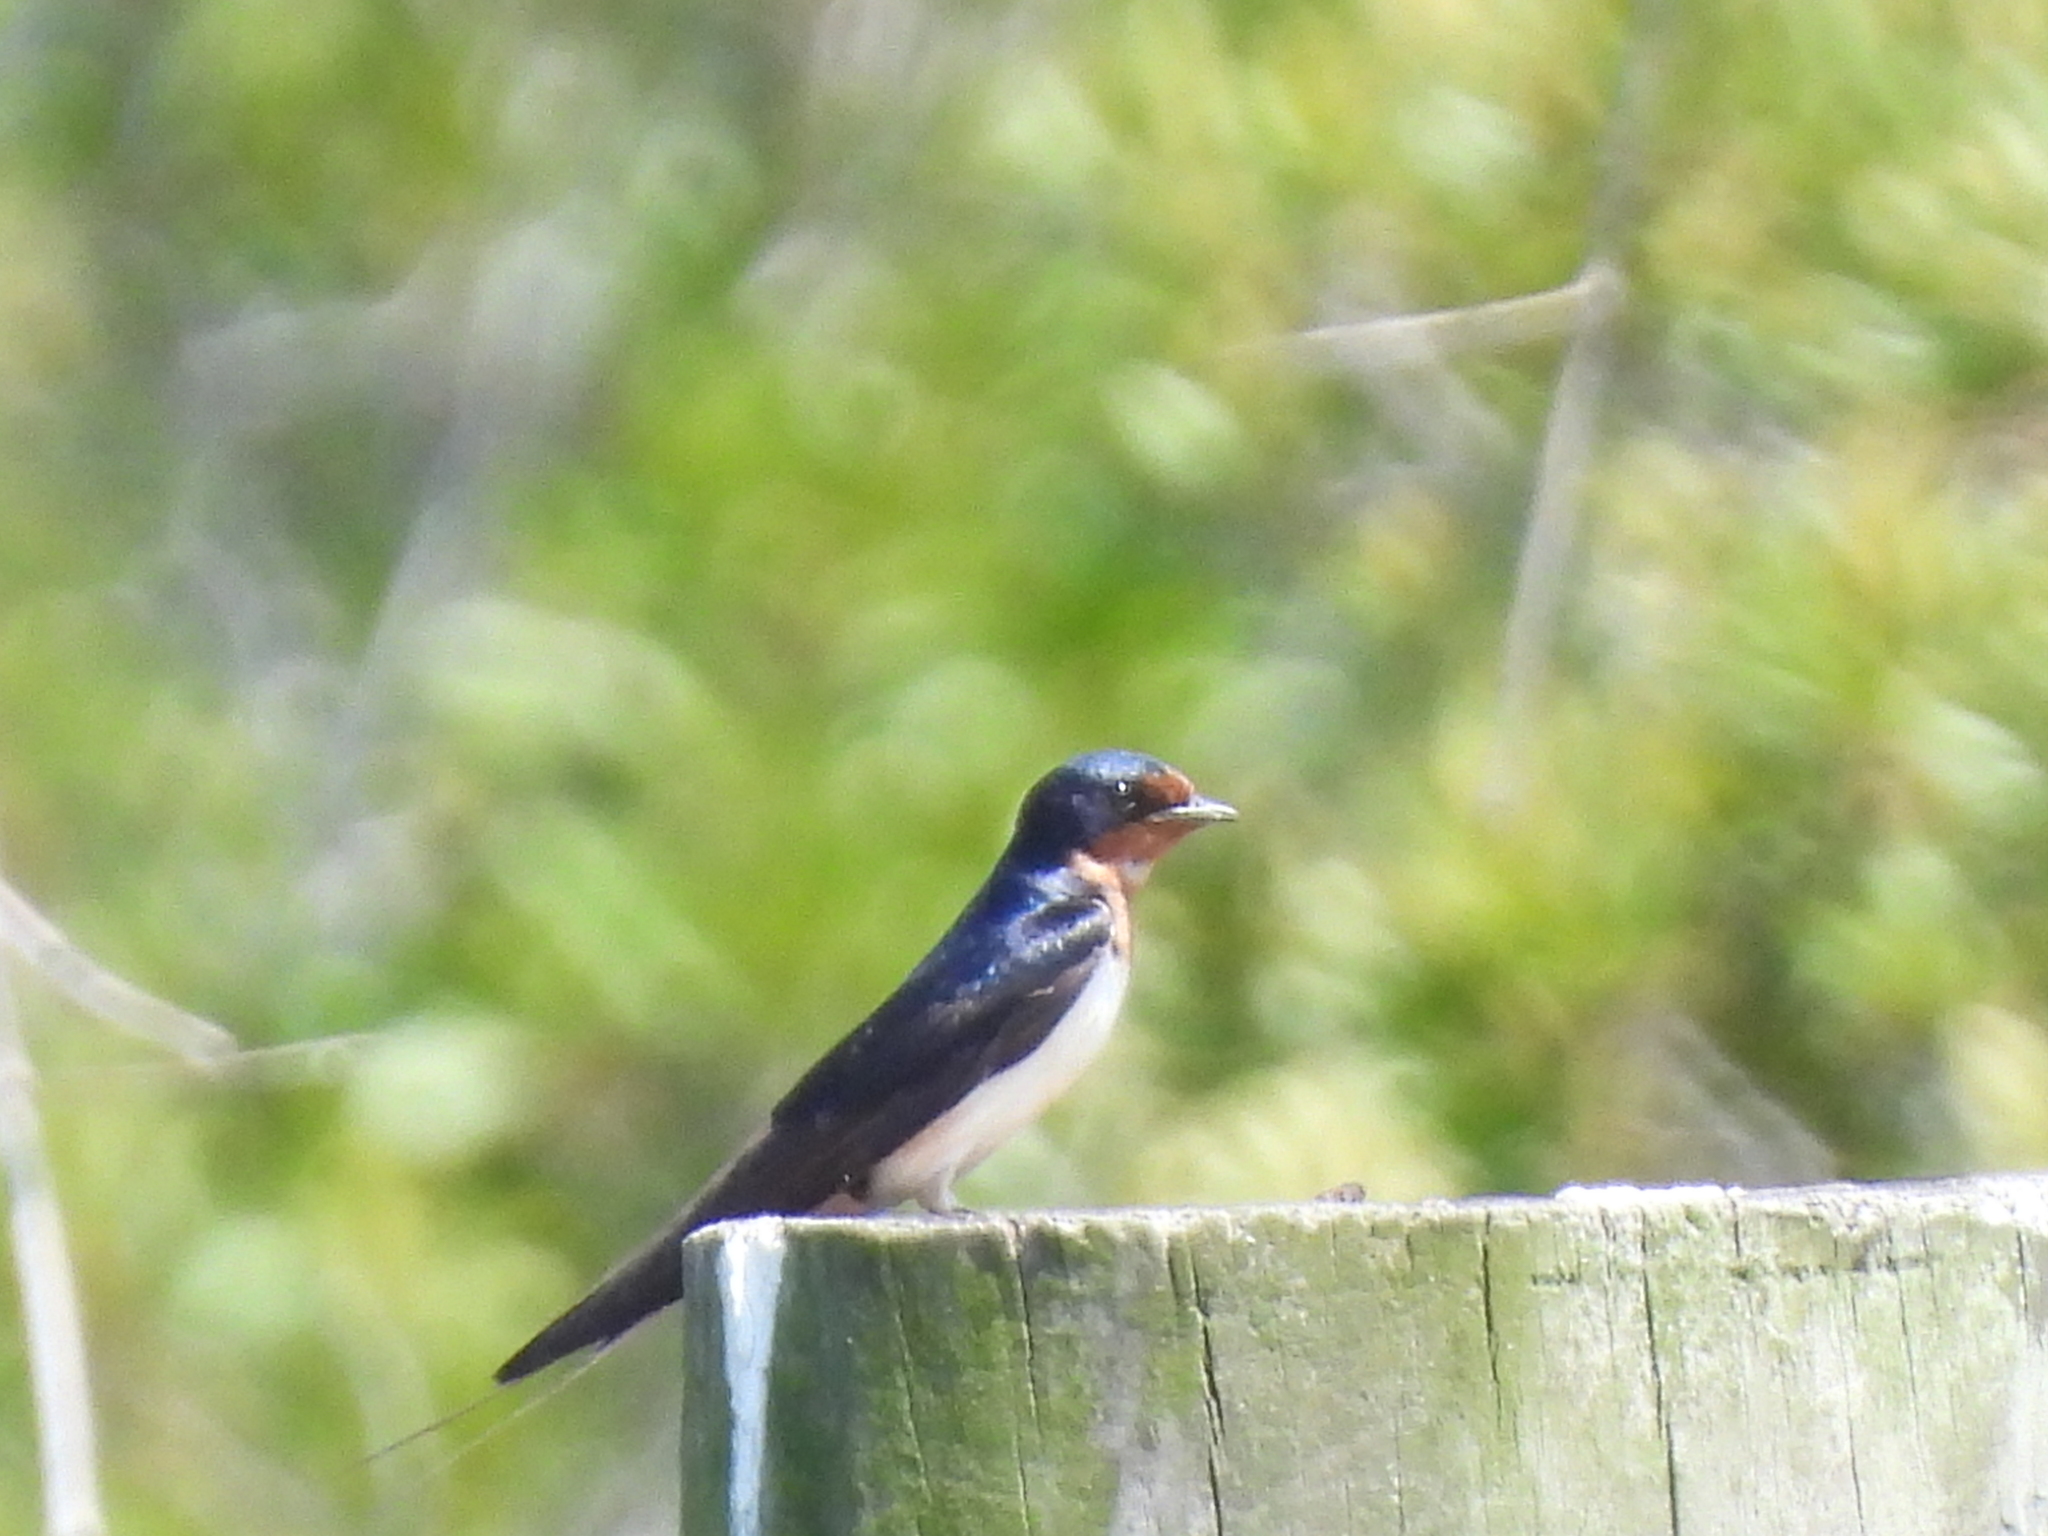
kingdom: Animalia
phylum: Chordata
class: Aves
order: Passeriformes
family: Hirundinidae
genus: Hirundo
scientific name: Hirundo rustica
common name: Barn swallow
